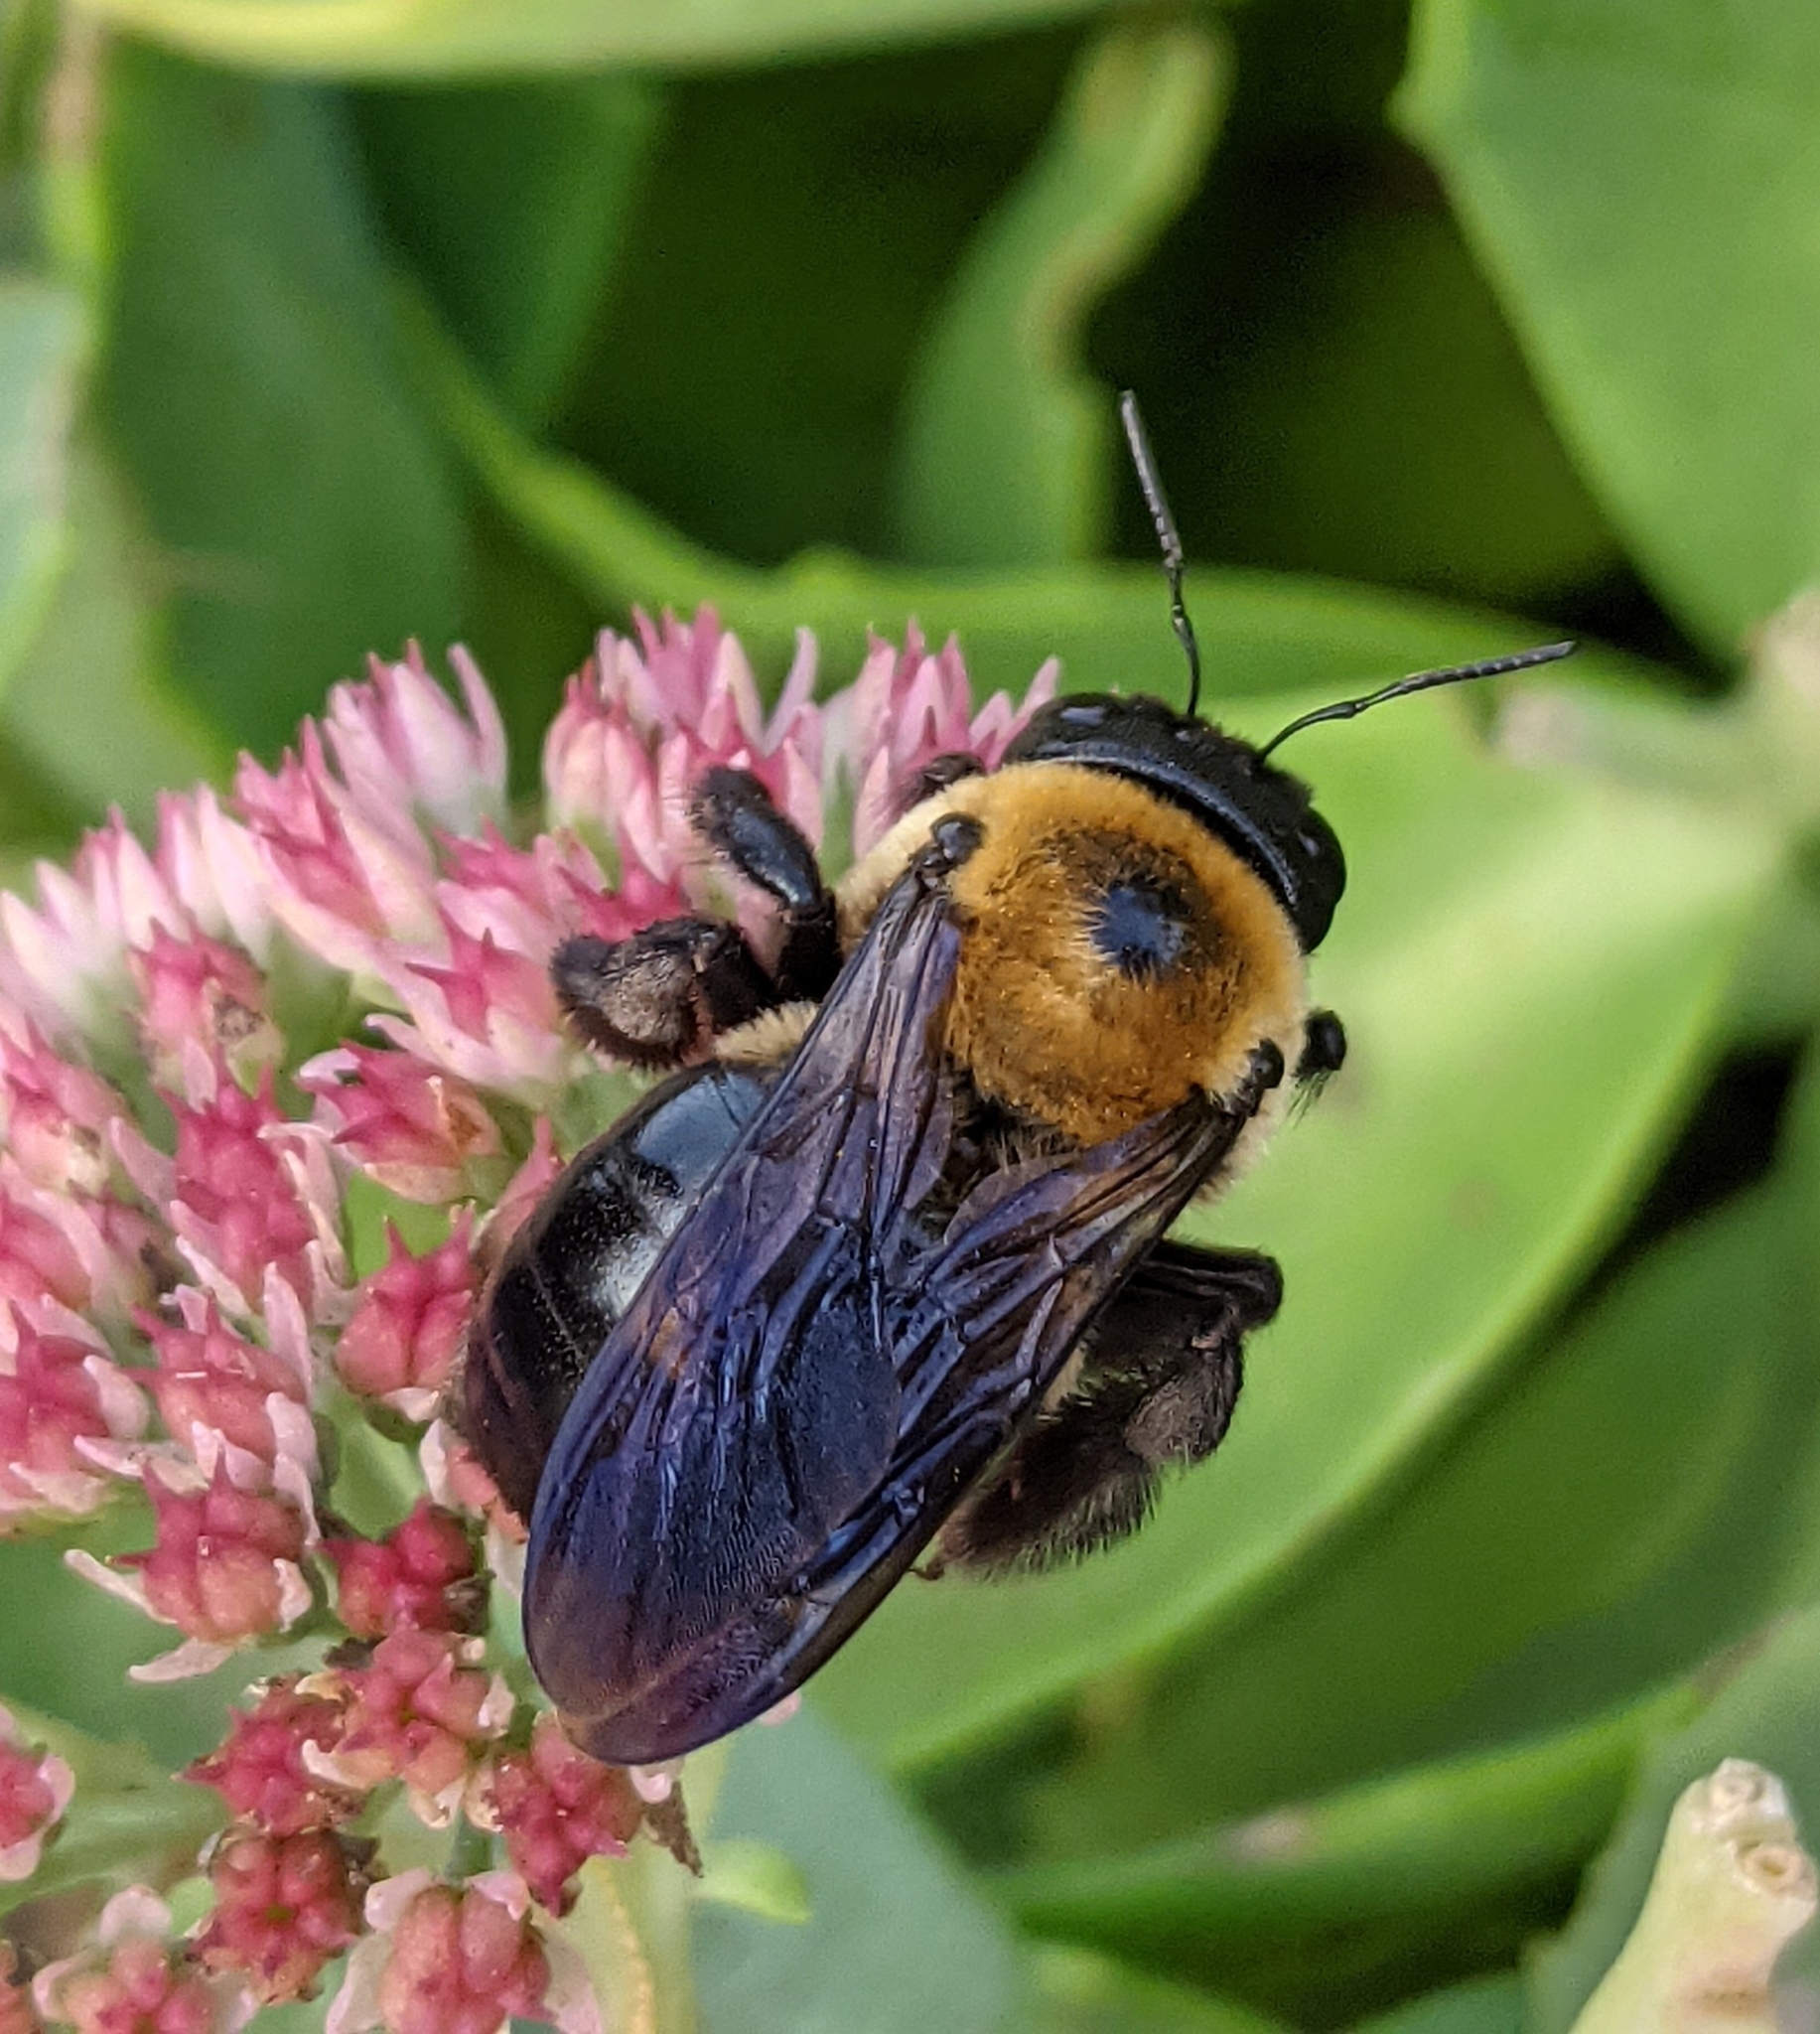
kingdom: Animalia
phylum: Arthropoda
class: Insecta
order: Hymenoptera
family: Apidae
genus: Xylocopa
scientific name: Xylocopa virginica
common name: Carpenter bee
